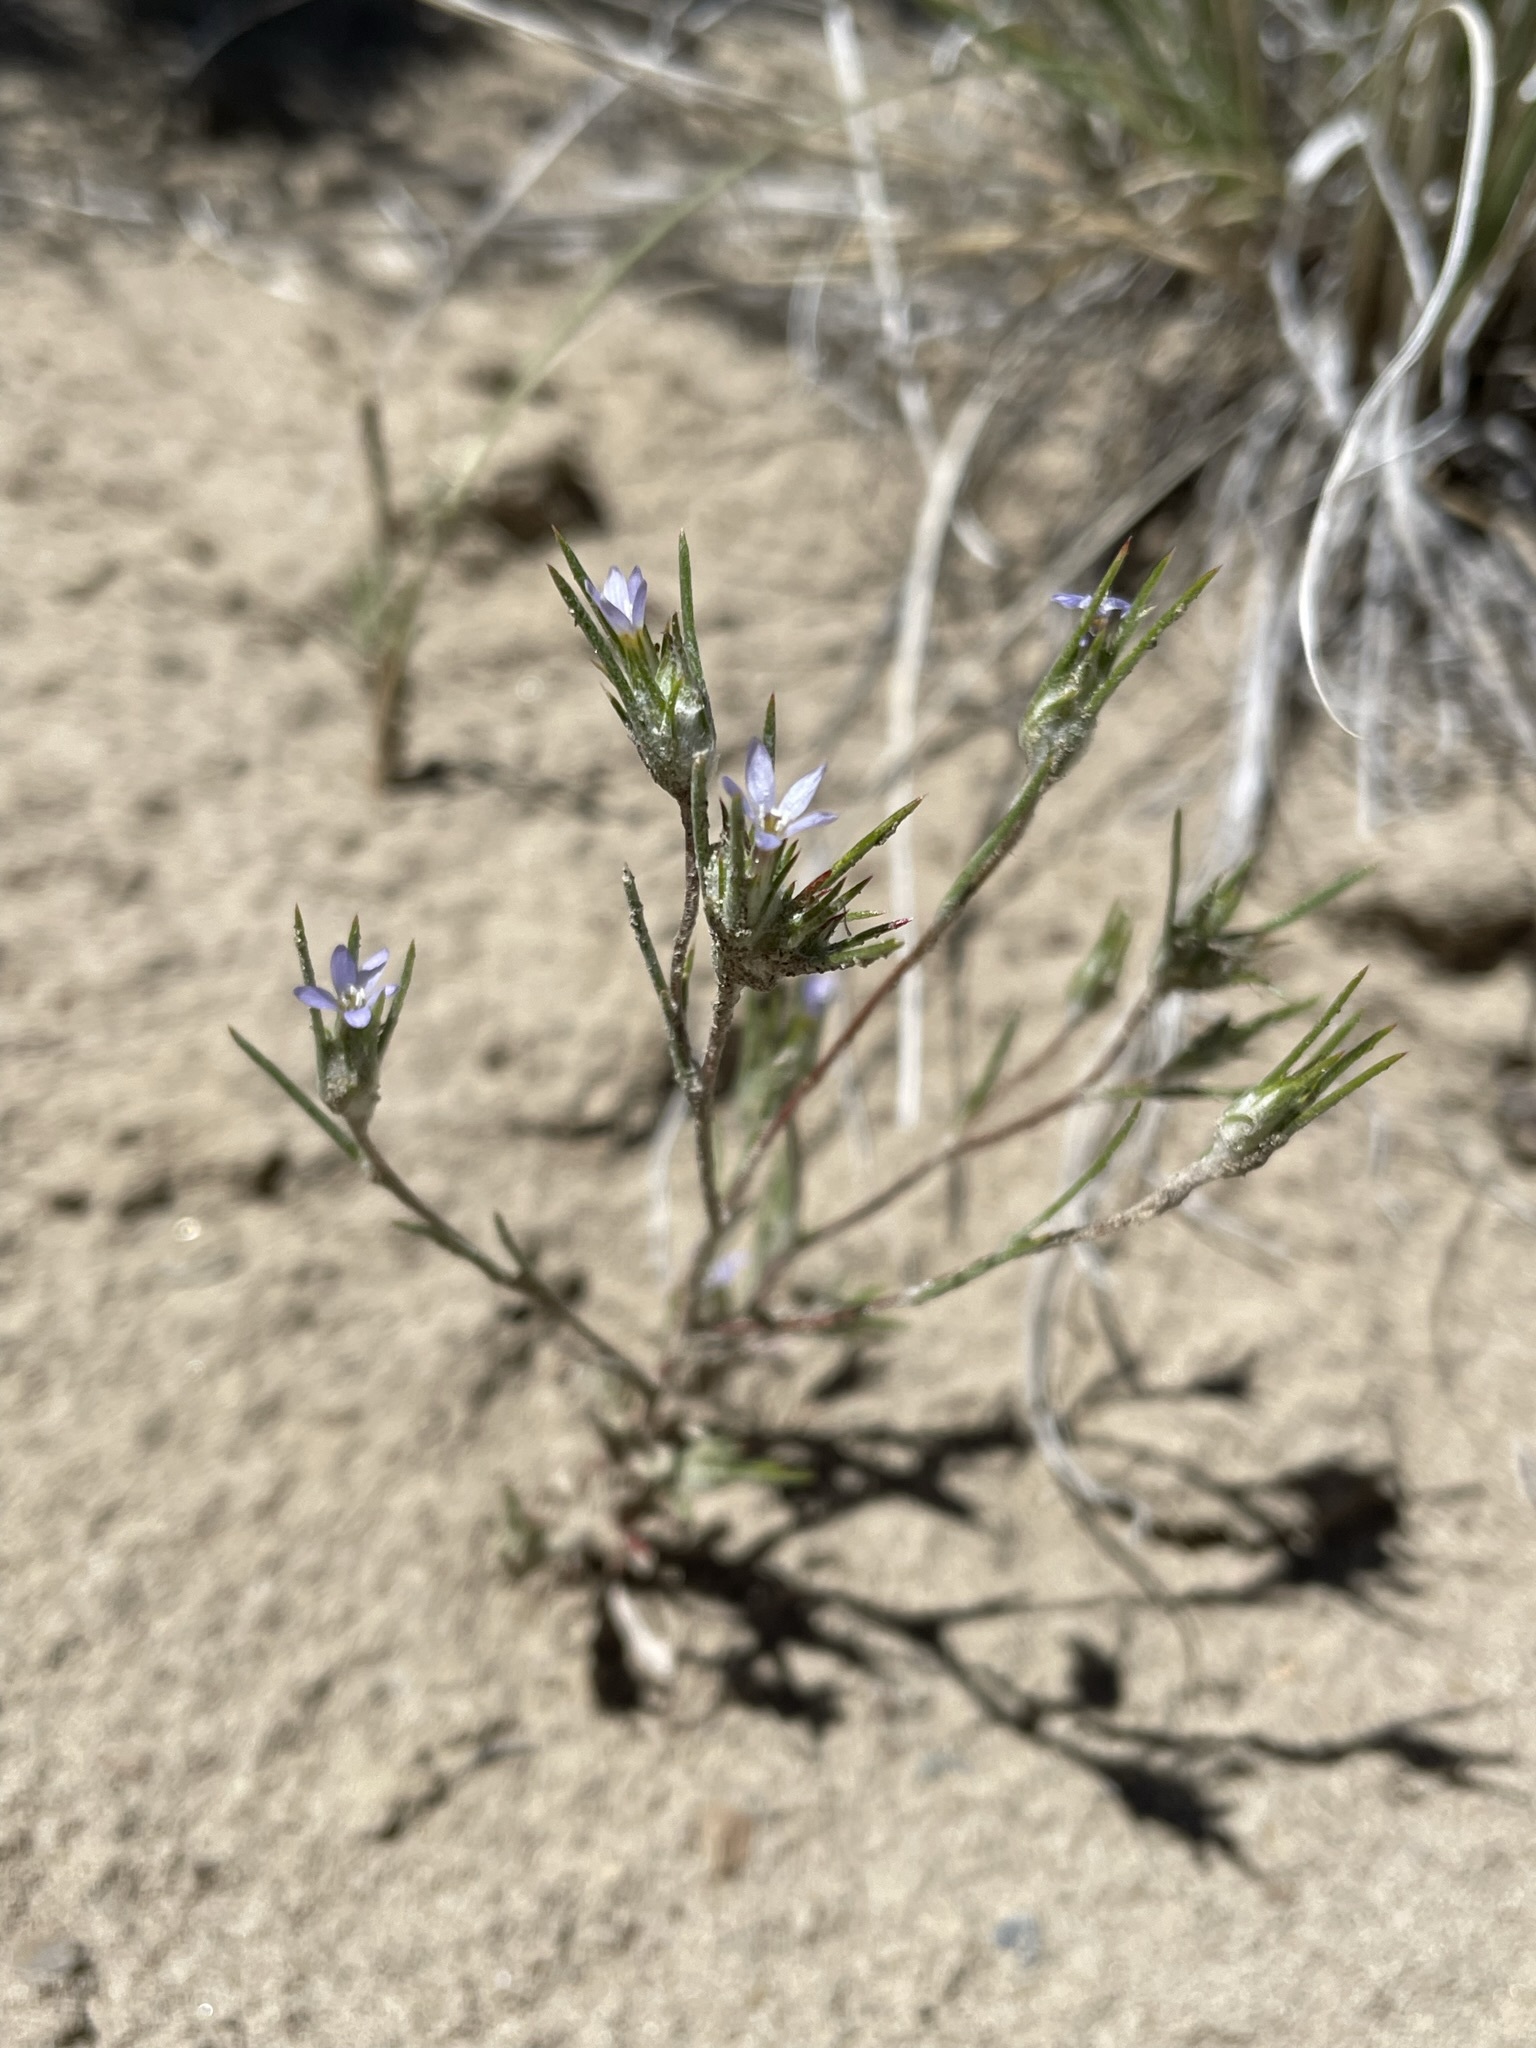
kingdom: Plantae
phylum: Tracheophyta
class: Magnoliopsida
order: Ericales
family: Polemoniaceae
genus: Eriastrum
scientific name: Eriastrum signatum
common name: Great basin woollystar
